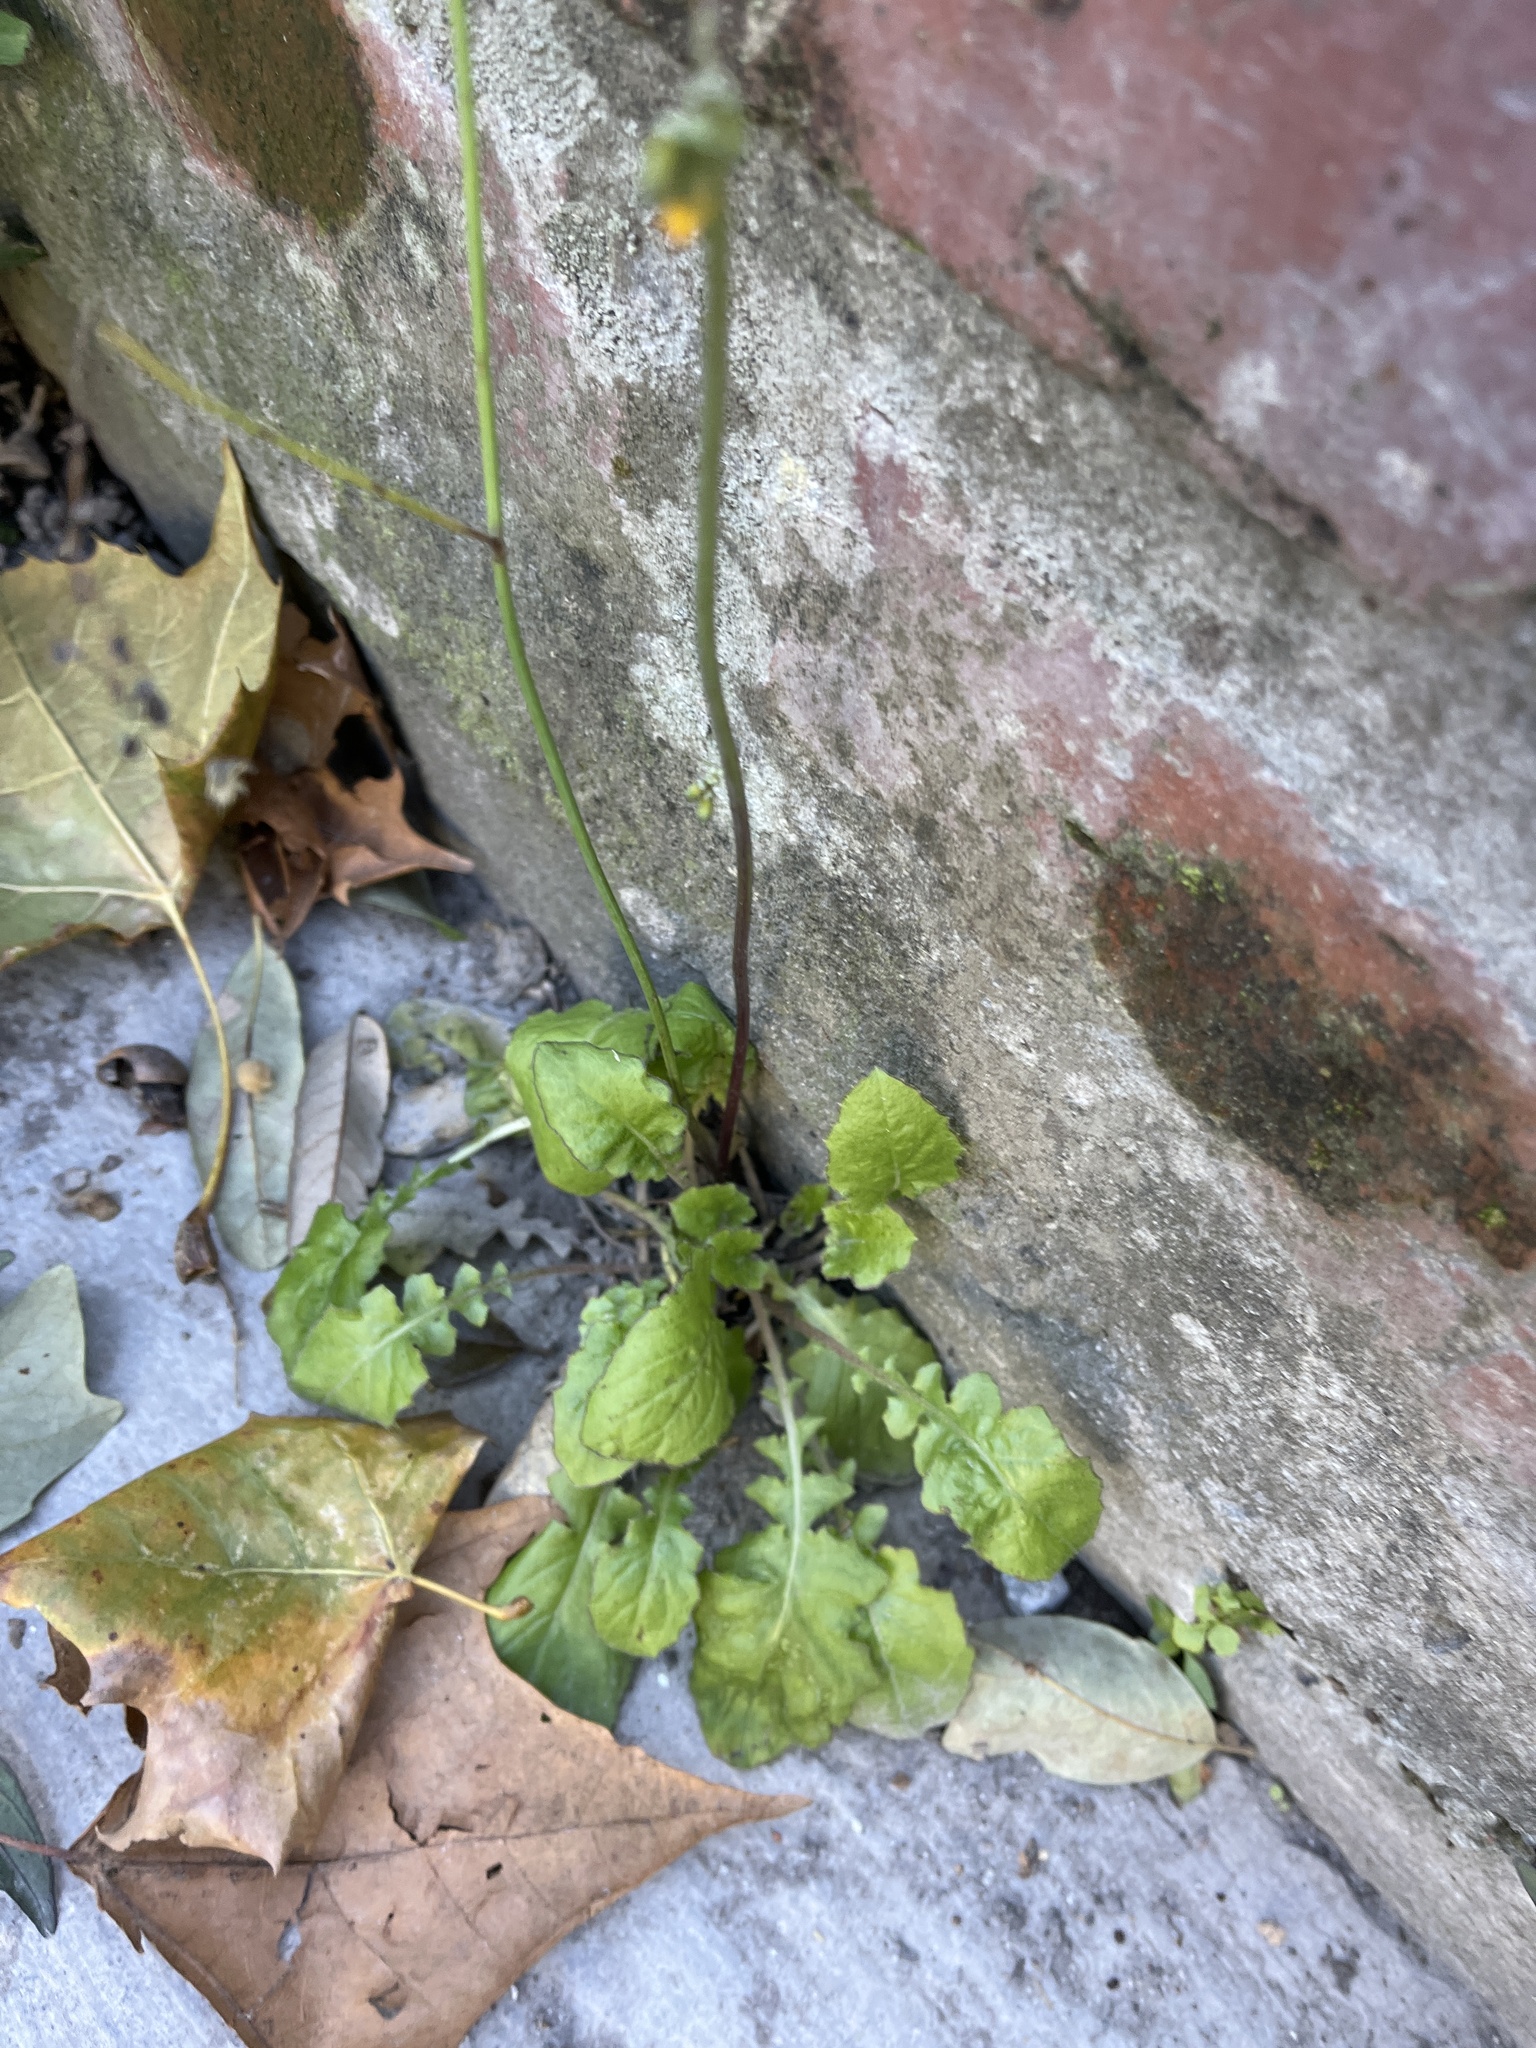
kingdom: Plantae
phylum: Tracheophyta
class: Magnoliopsida
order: Asterales
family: Asteraceae
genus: Youngia
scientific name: Youngia japonica
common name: Oriental false hawksbeard
